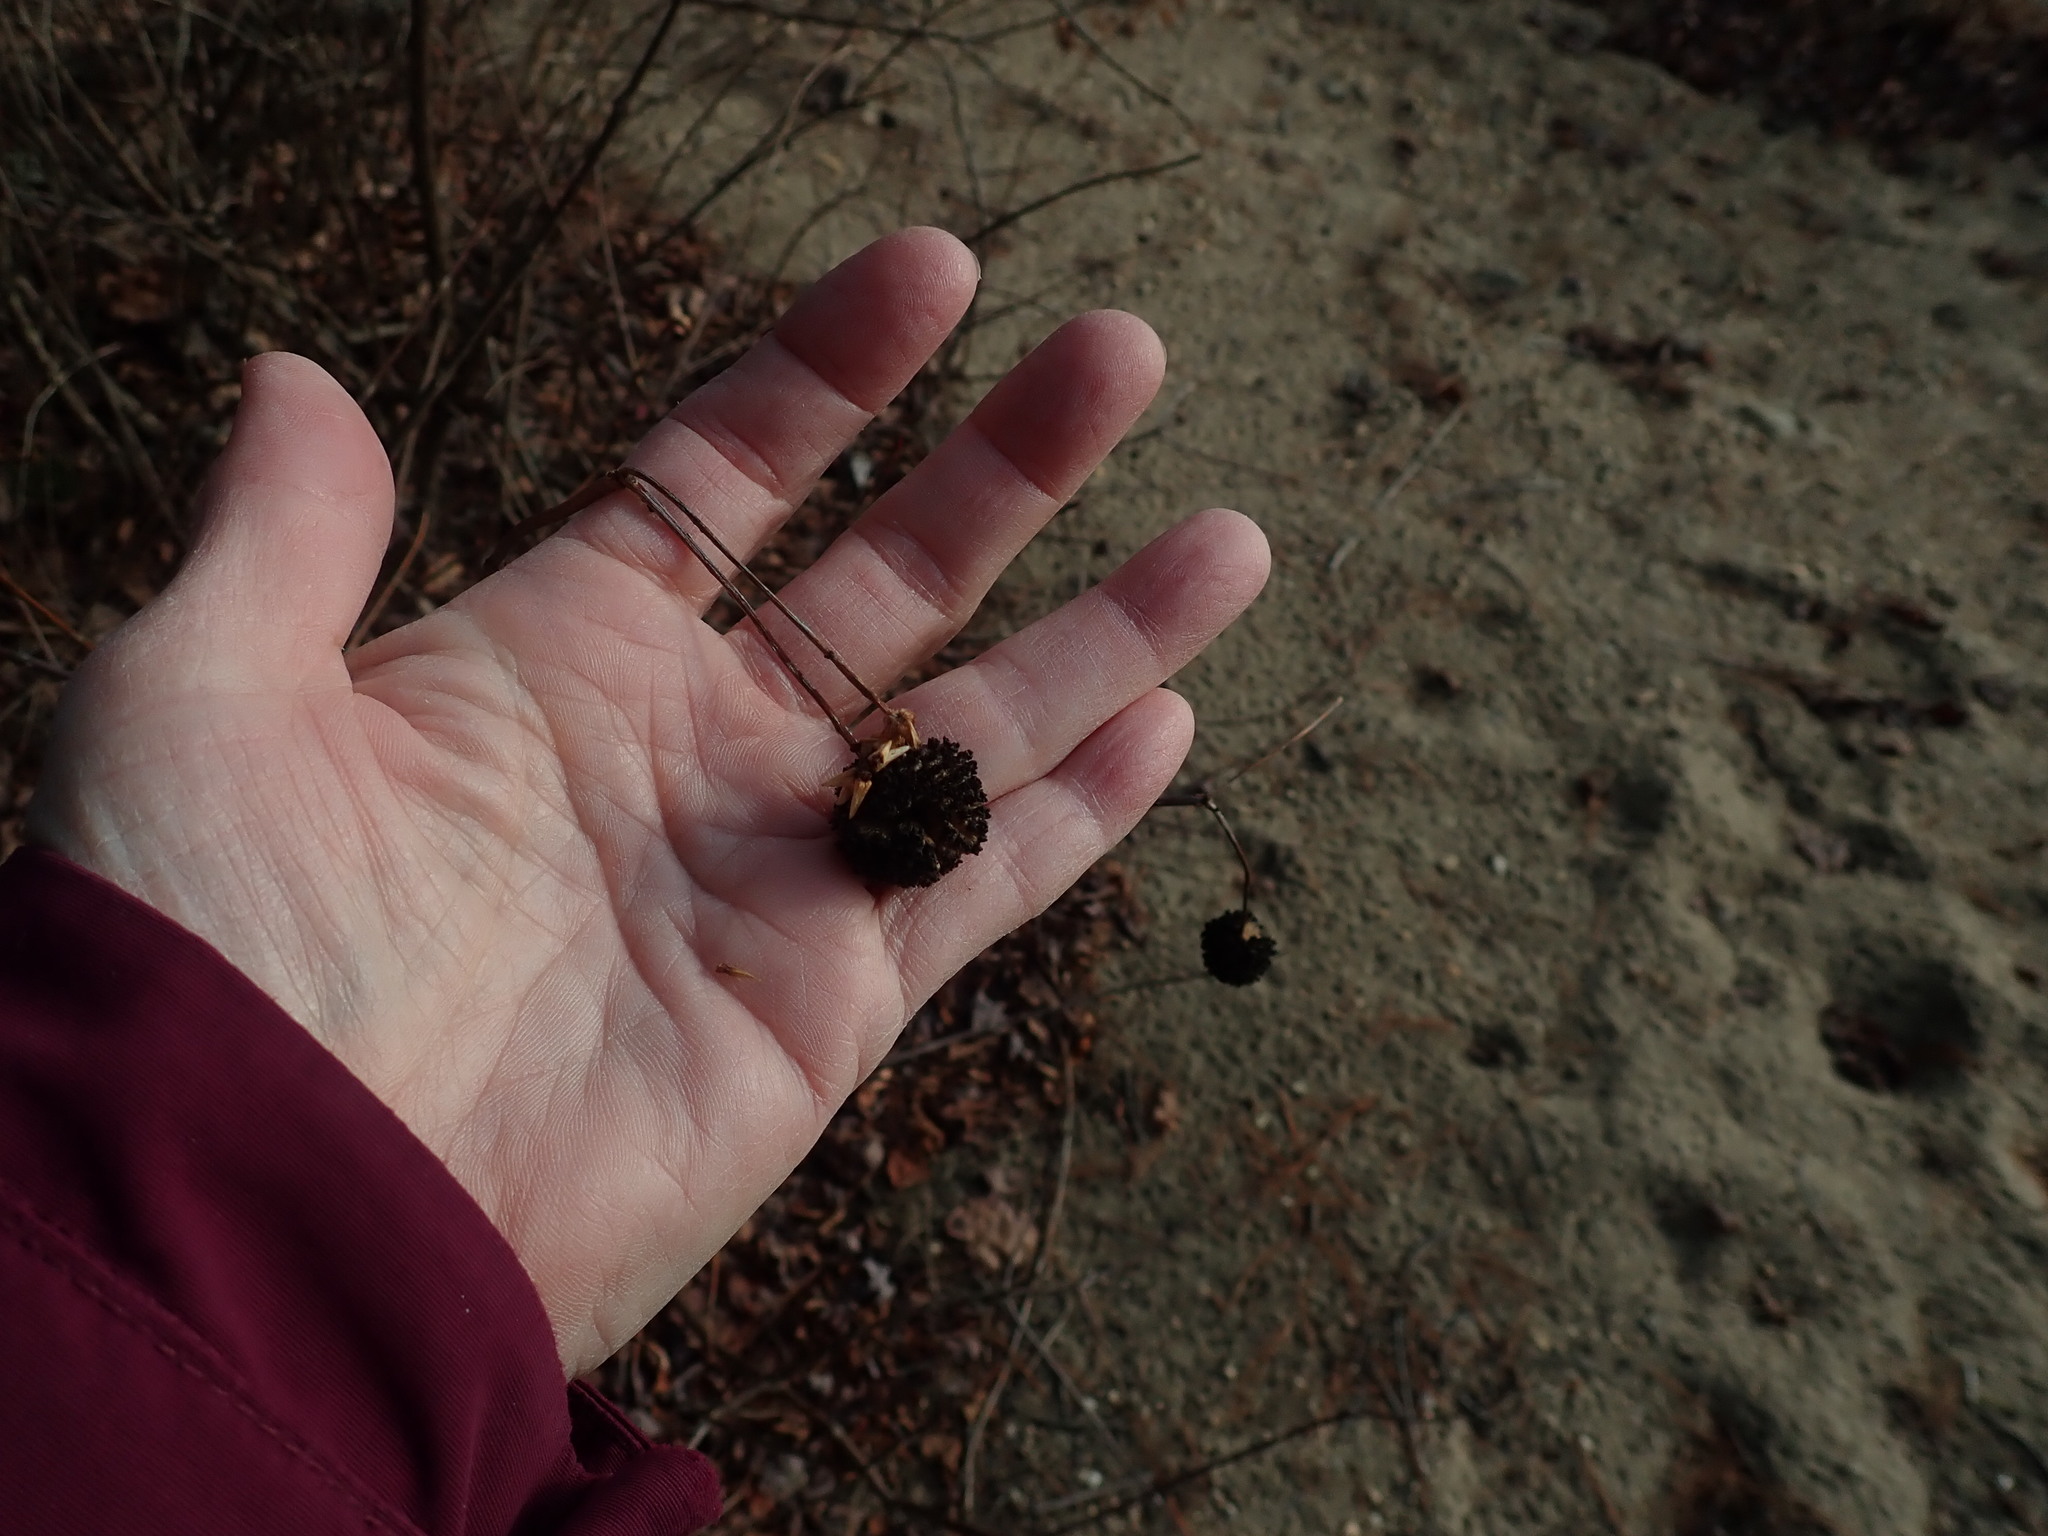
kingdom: Plantae
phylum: Tracheophyta
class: Magnoliopsida
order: Gentianales
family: Rubiaceae
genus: Cephalanthus
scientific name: Cephalanthus occidentalis
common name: Button-willow
